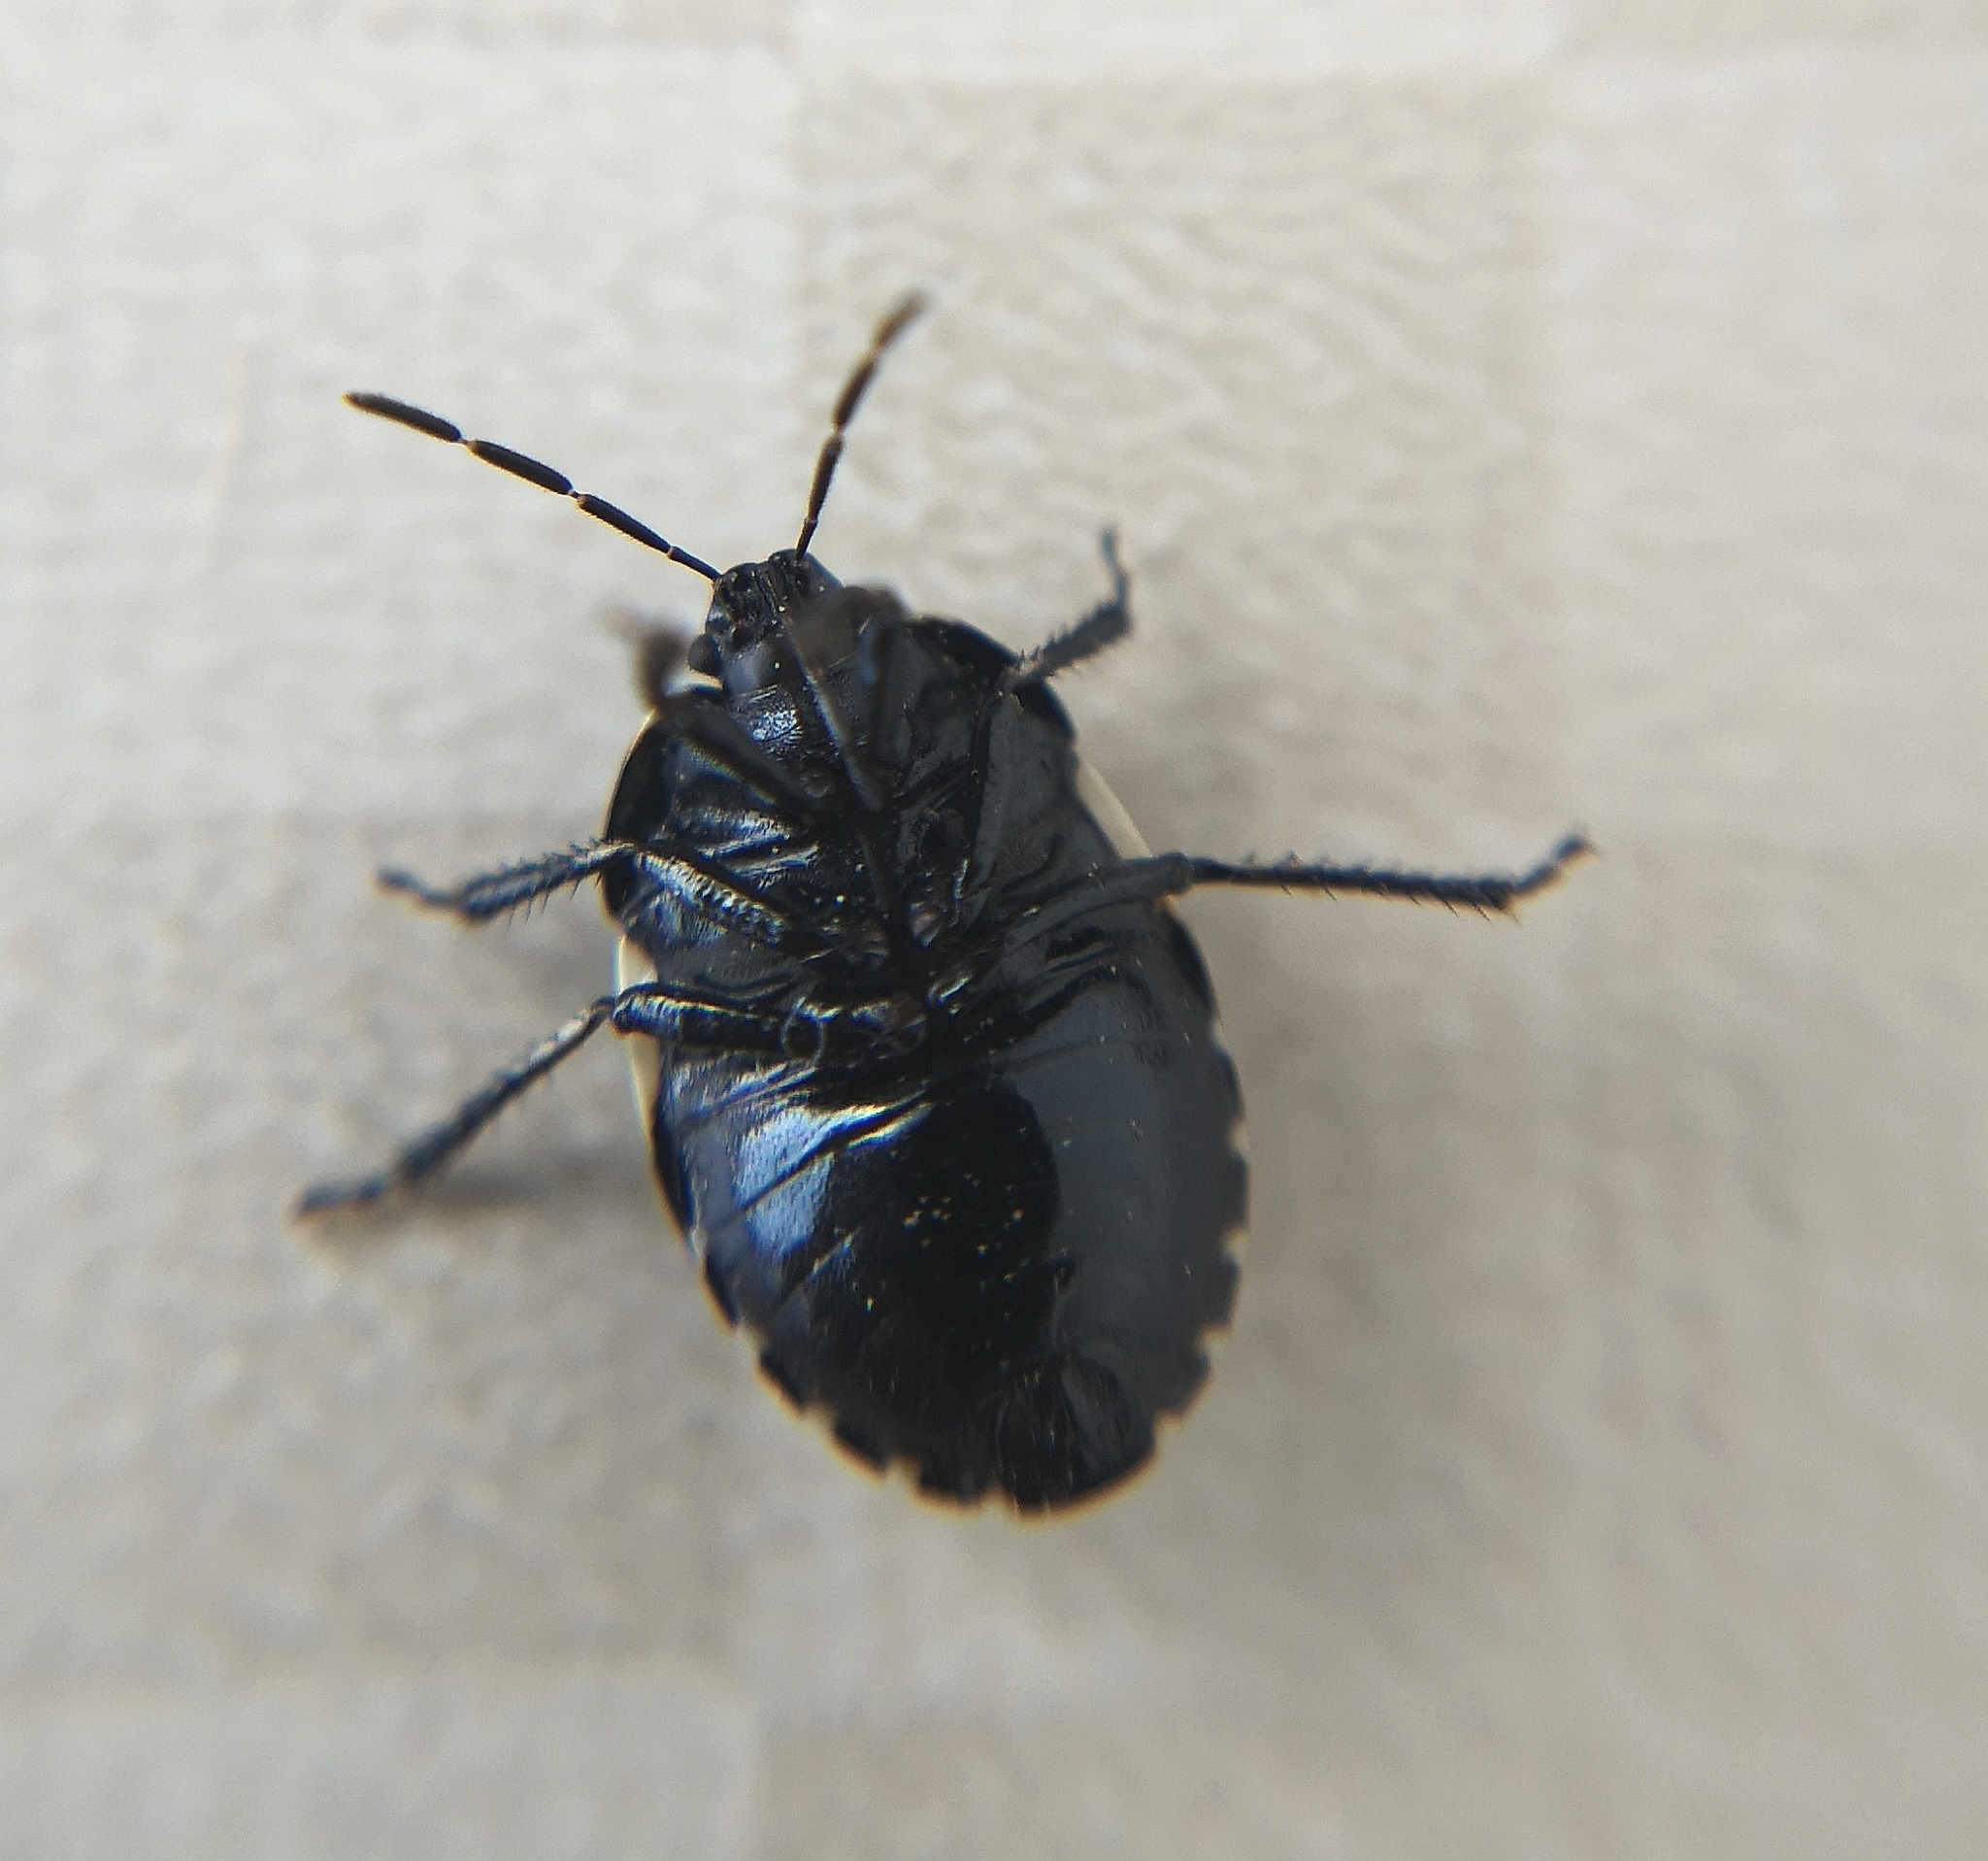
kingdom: Animalia
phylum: Arthropoda
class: Insecta
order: Hemiptera
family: Cydnidae
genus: Tritomegas
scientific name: Tritomegas bicolor
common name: Pied shieldbug
